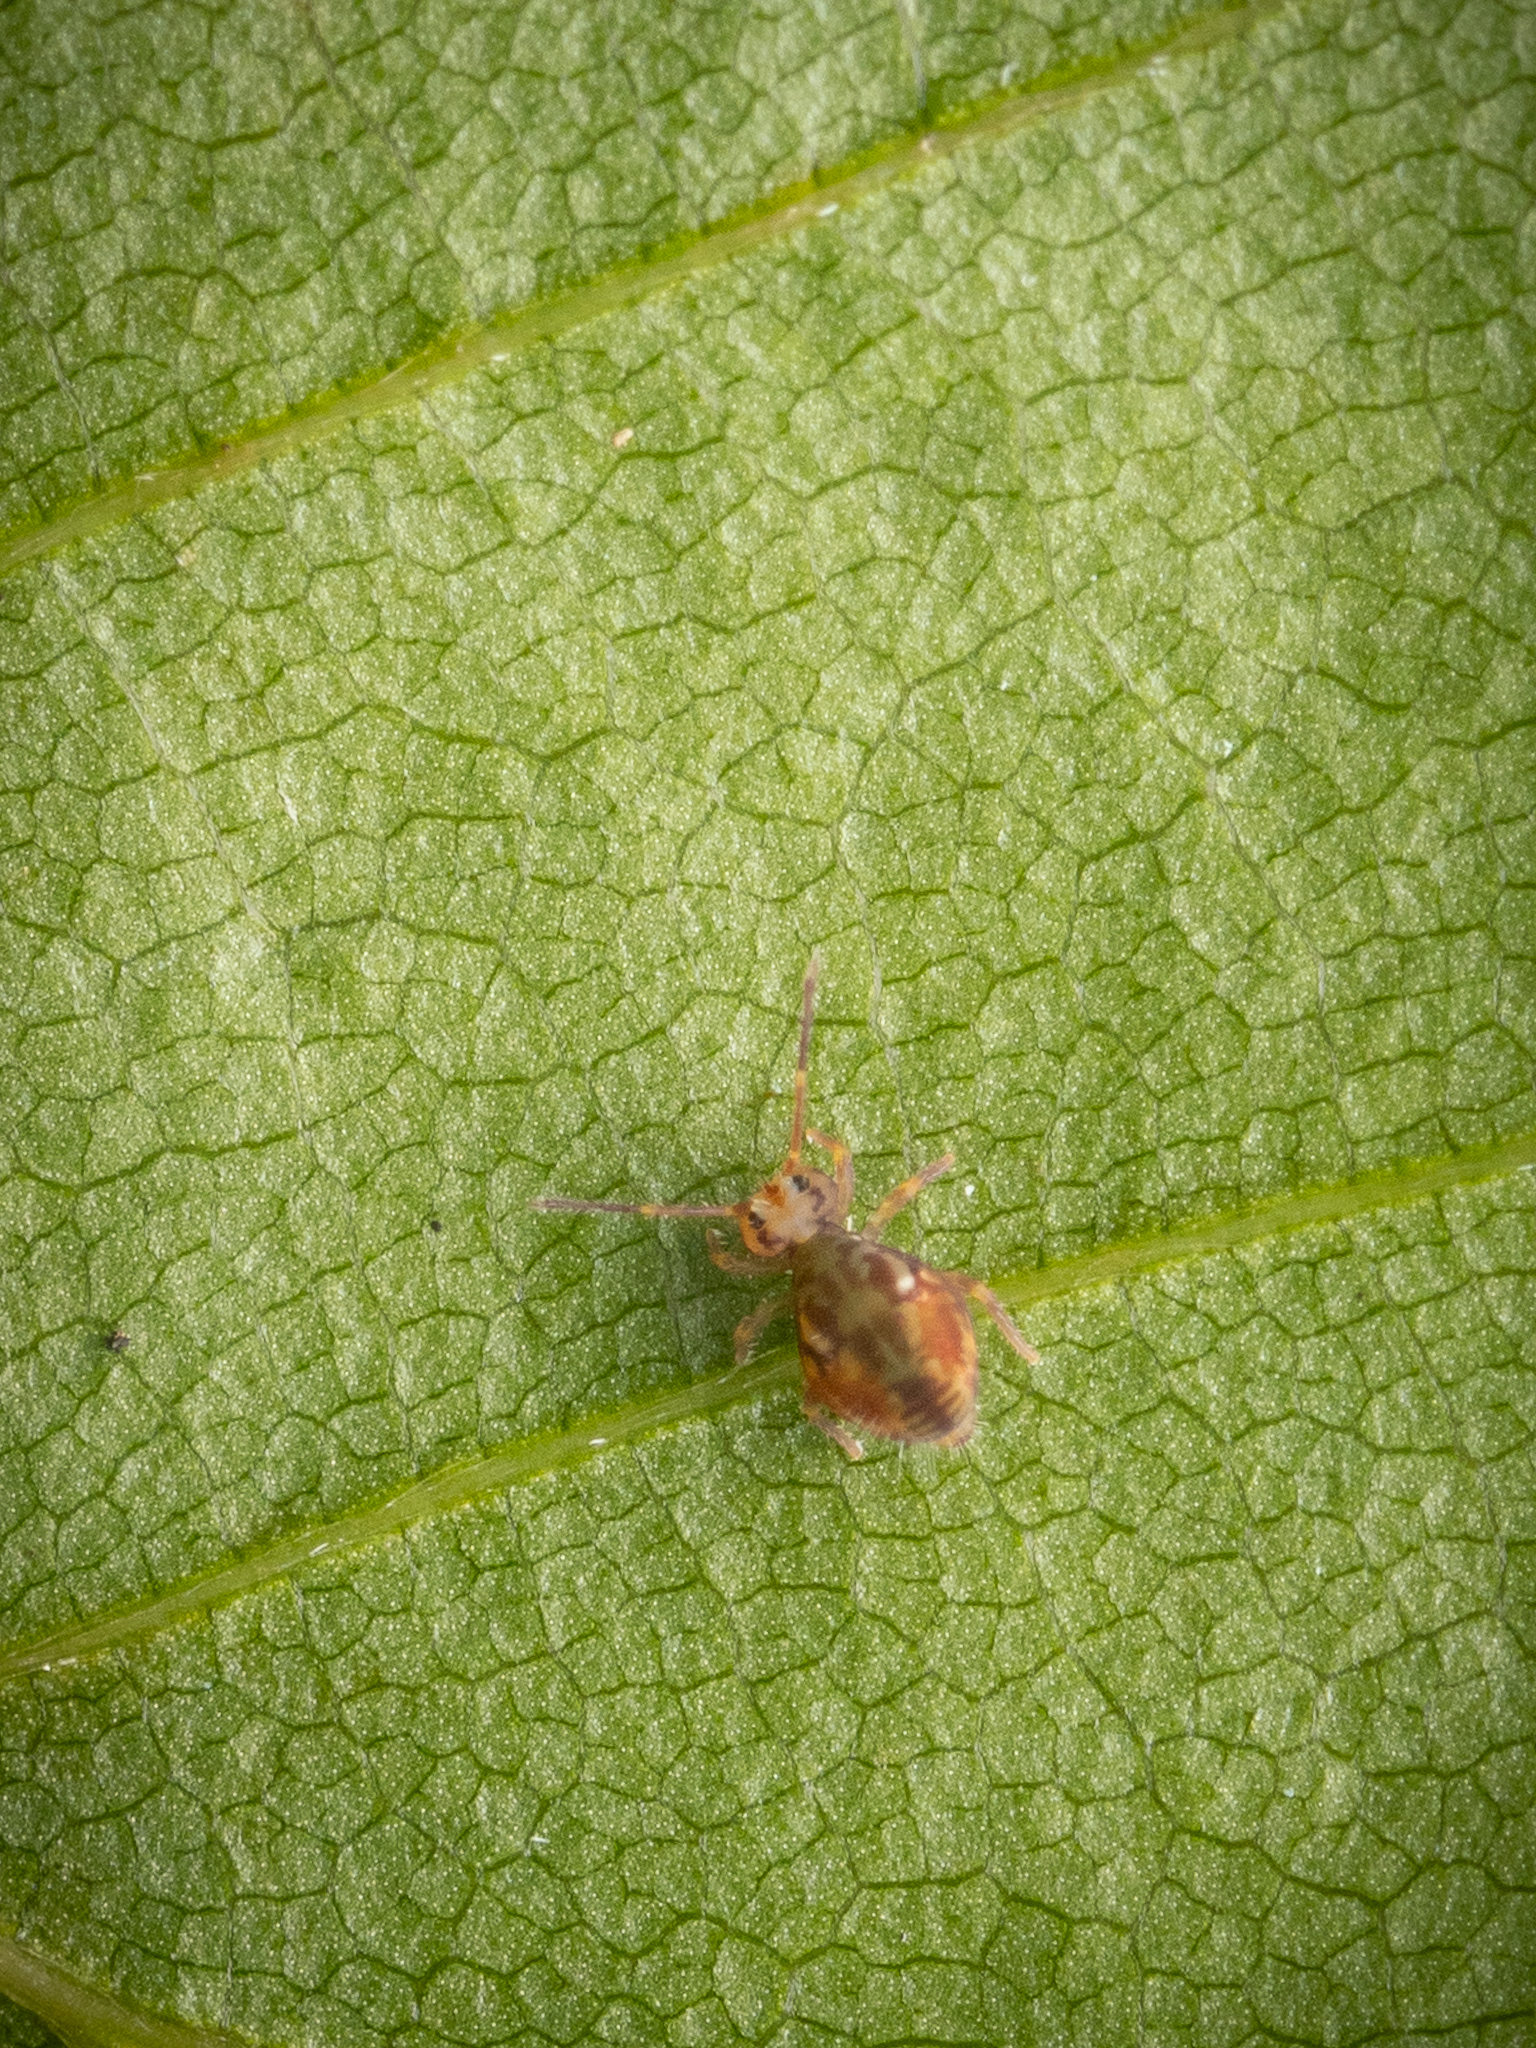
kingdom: Animalia
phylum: Arthropoda
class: Collembola
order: Symphypleona
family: Dicyrtomidae
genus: Dicyrtomina
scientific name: Dicyrtomina saundersi
